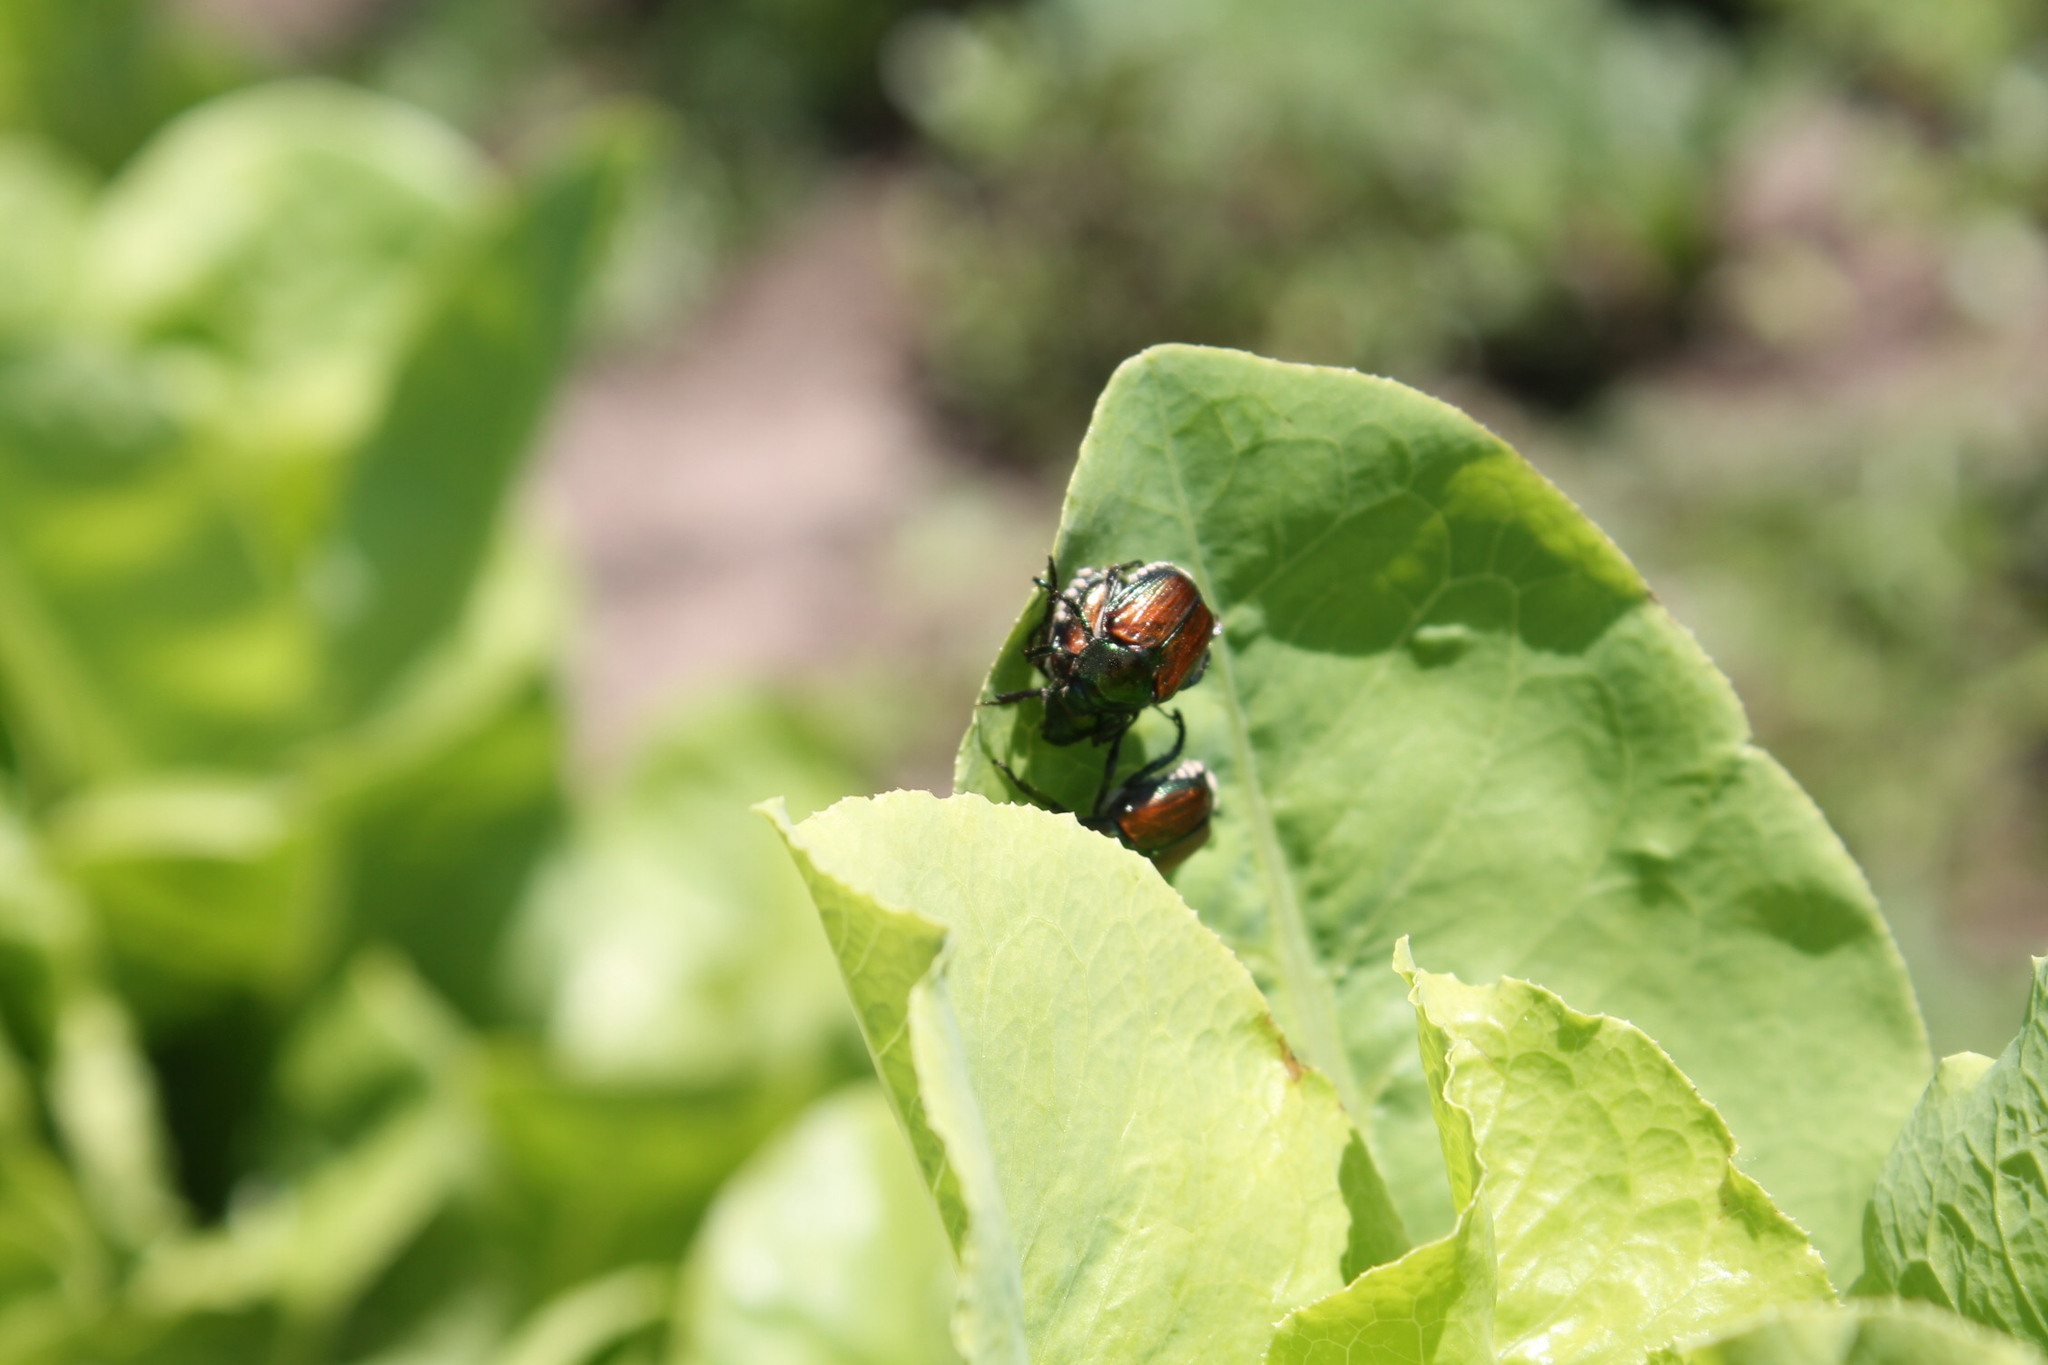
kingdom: Animalia
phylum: Arthropoda
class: Insecta
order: Coleoptera
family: Scarabaeidae
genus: Popillia
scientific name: Popillia japonica
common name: Japanese beetle
